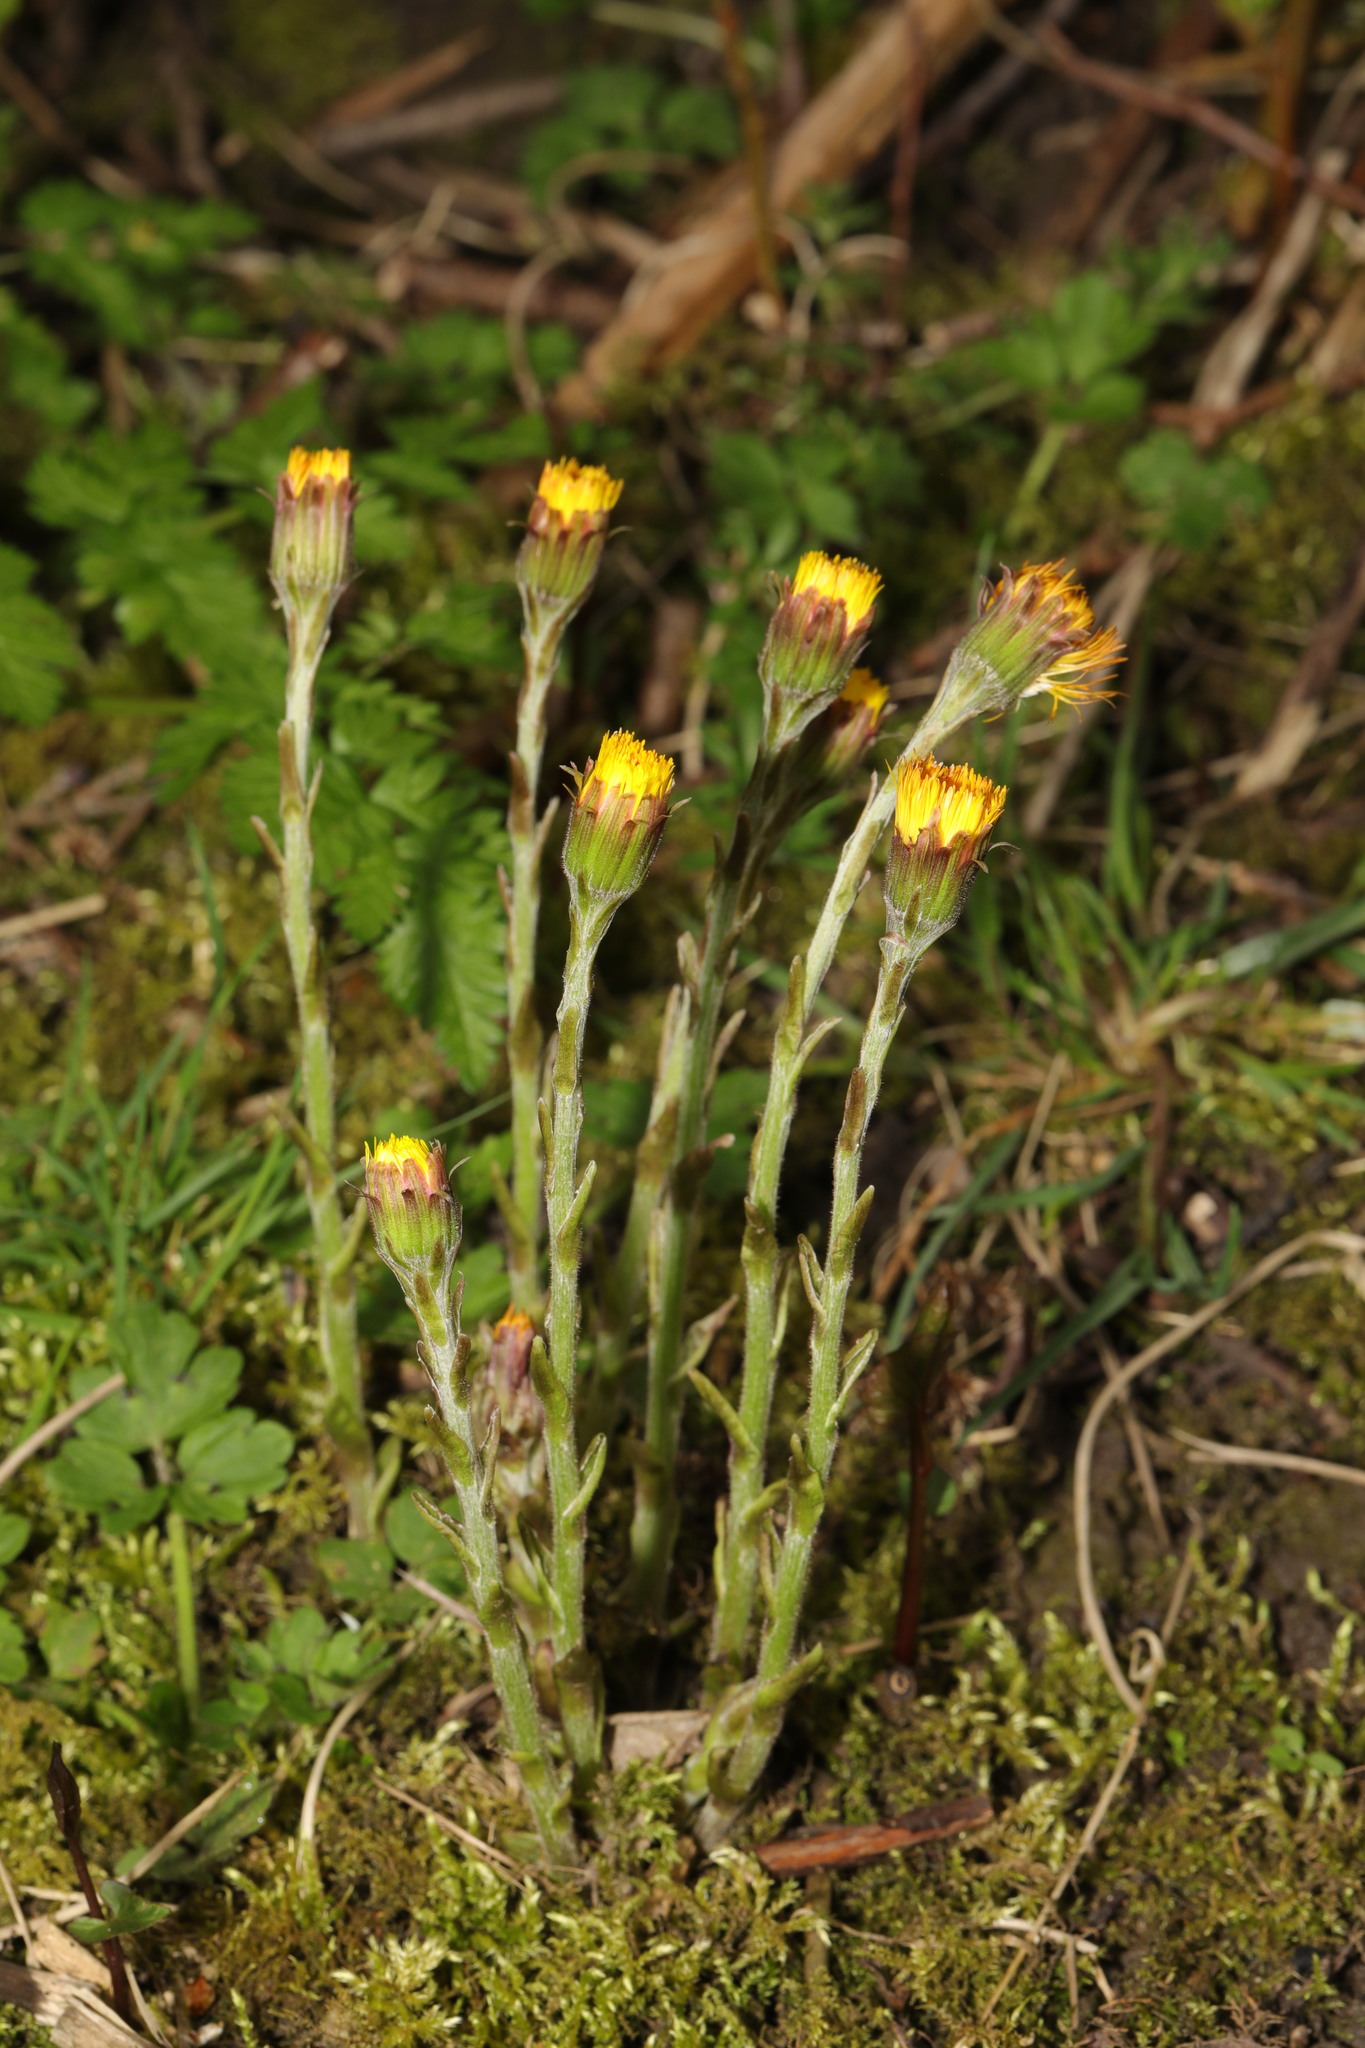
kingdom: Plantae
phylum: Tracheophyta
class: Magnoliopsida
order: Asterales
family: Asteraceae
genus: Tussilago
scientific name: Tussilago farfara
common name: Coltsfoot
